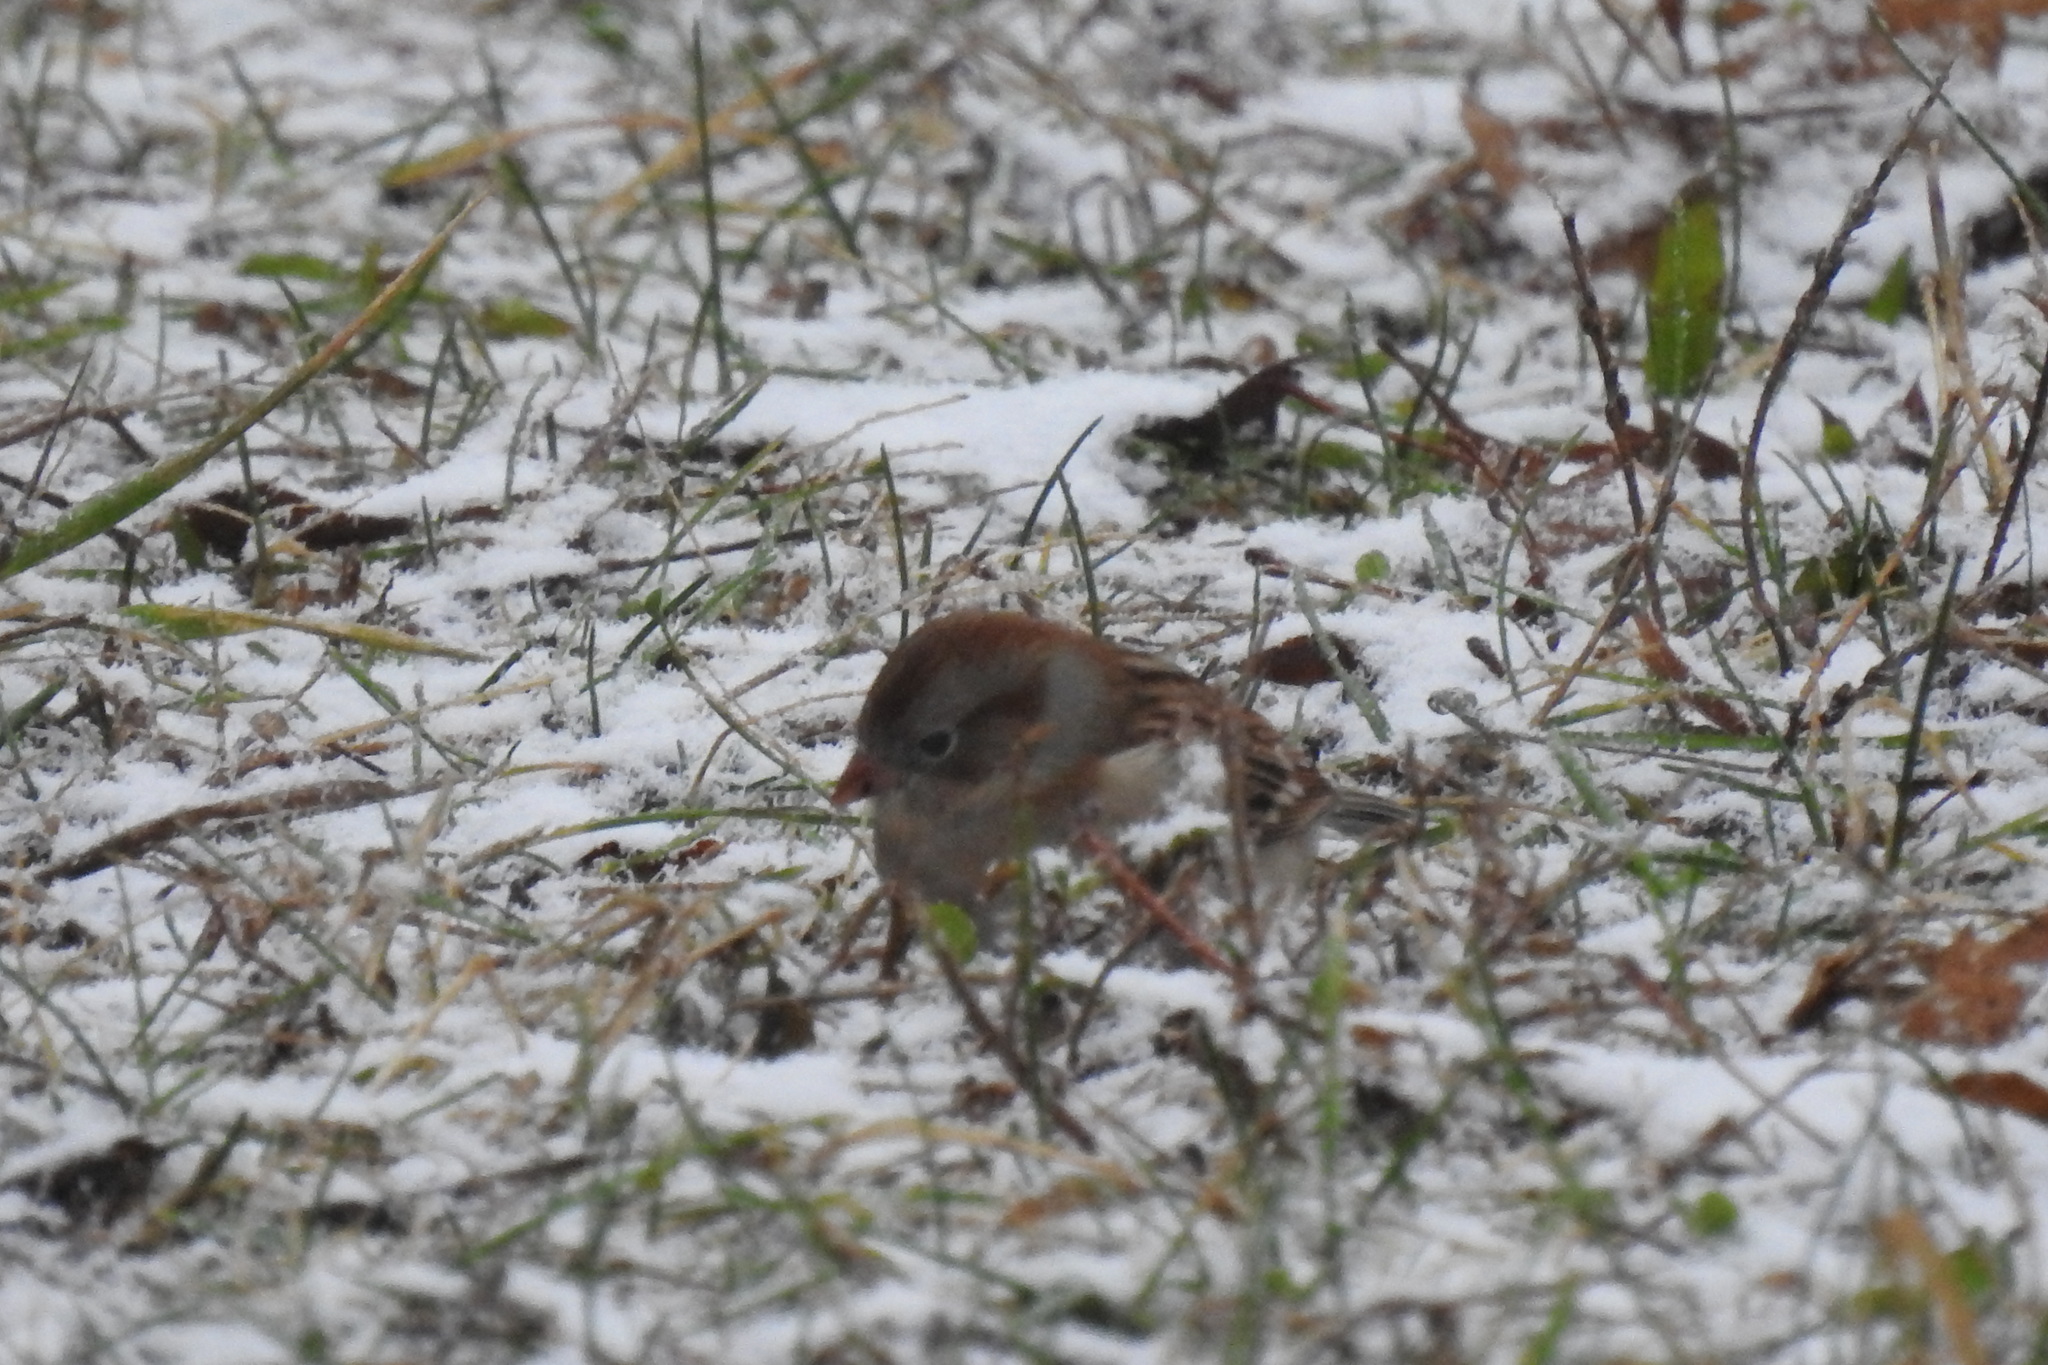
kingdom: Animalia
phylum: Chordata
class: Aves
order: Passeriformes
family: Passerellidae
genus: Spizella
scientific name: Spizella pusilla
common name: Field sparrow
